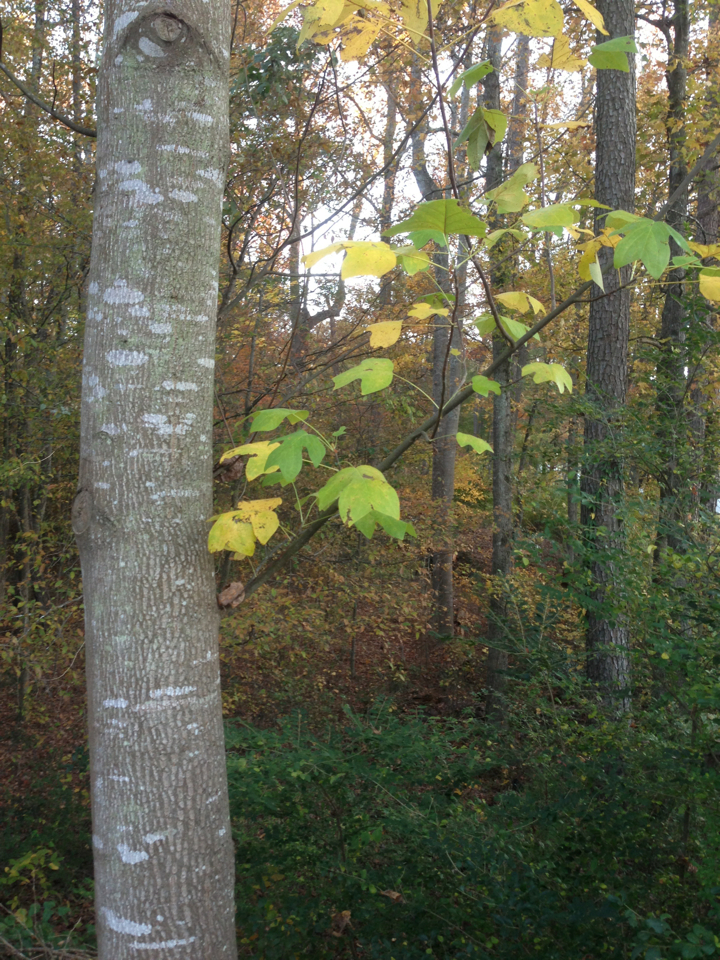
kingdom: Plantae
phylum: Tracheophyta
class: Magnoliopsida
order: Magnoliales
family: Magnoliaceae
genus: Liriodendron
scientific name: Liriodendron tulipifera
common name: Tulip tree
